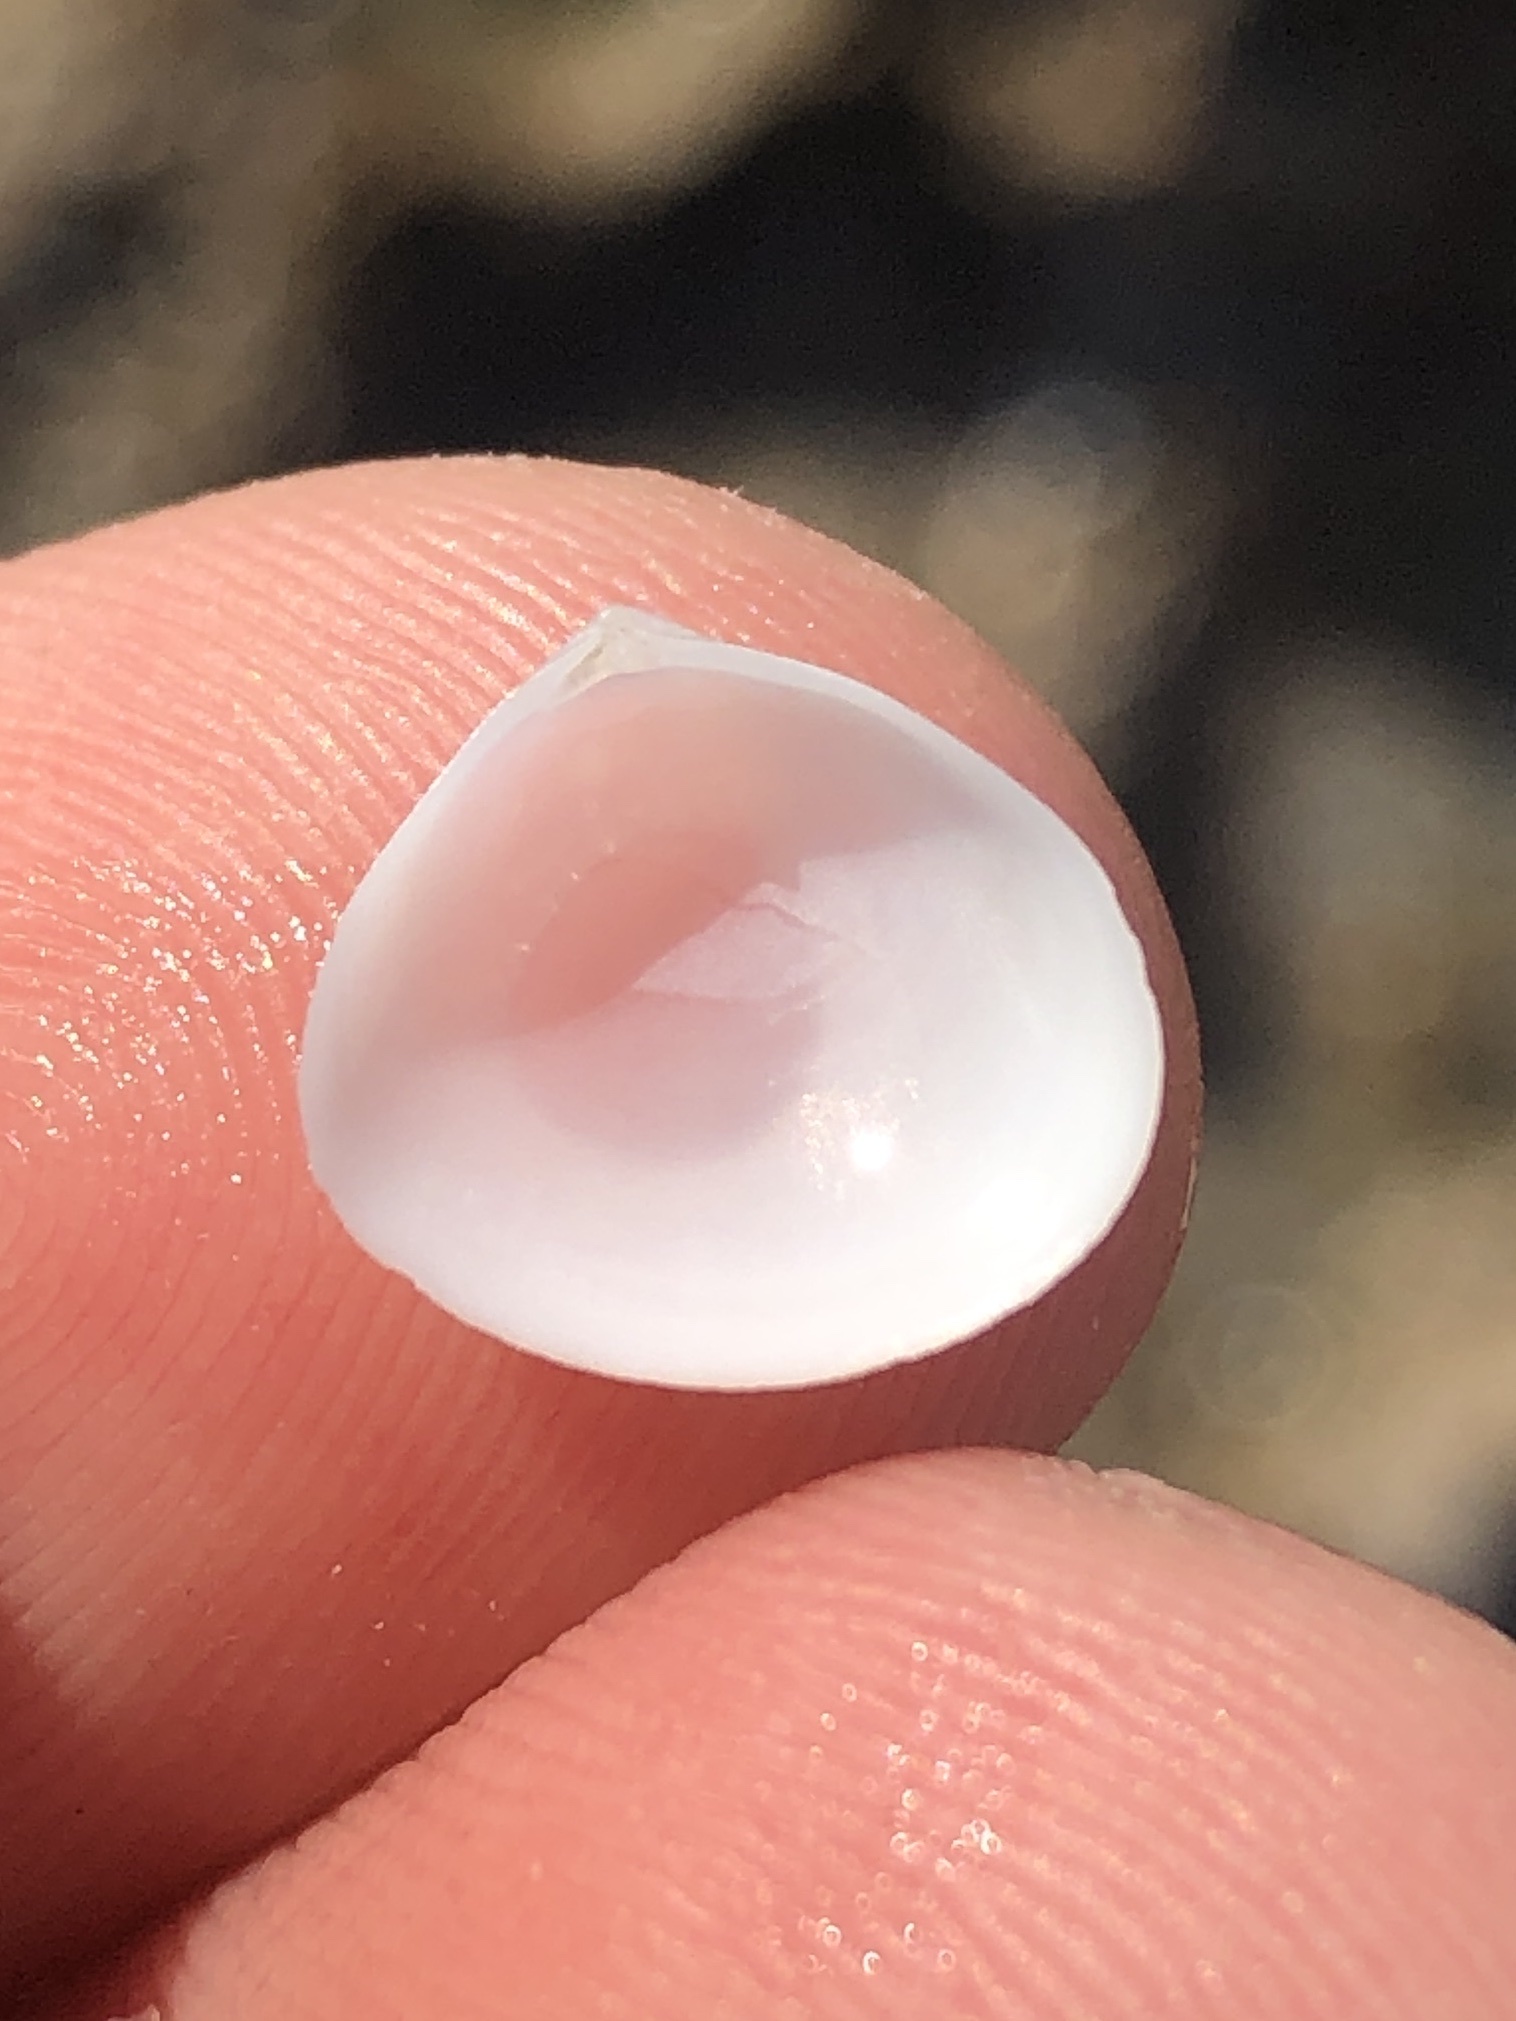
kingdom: Animalia
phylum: Mollusca
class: Bivalvia
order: Cardiida
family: Semelidae
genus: Abra
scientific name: Abra aequalis
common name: Common atlantic abra
